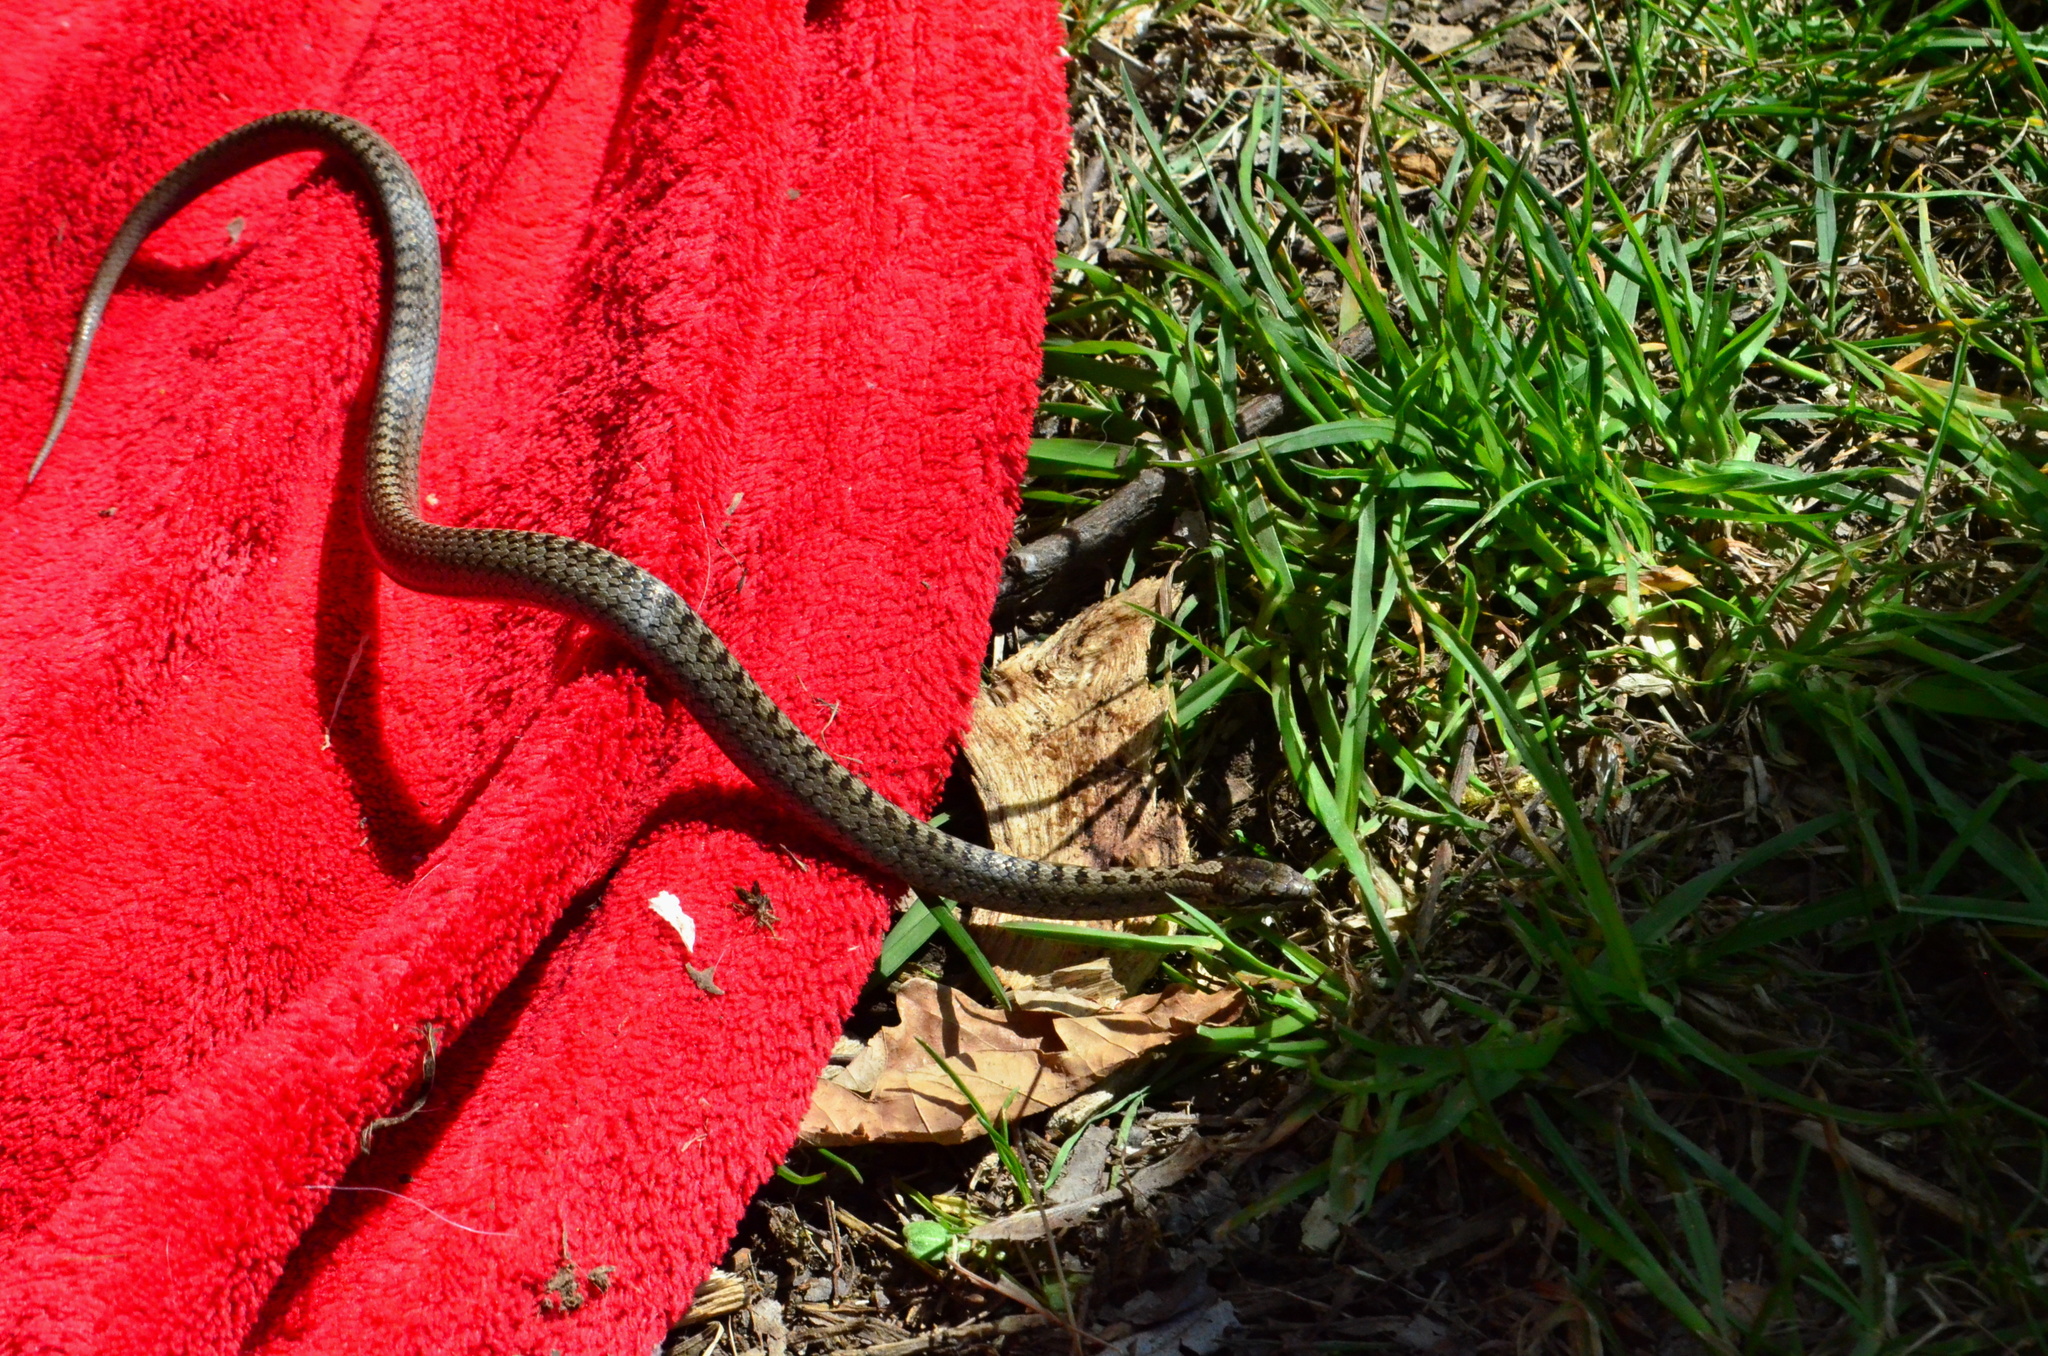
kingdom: Animalia
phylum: Chordata
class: Squamata
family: Colubridae
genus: Coronella
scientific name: Coronella austriaca
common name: Smooth snake
